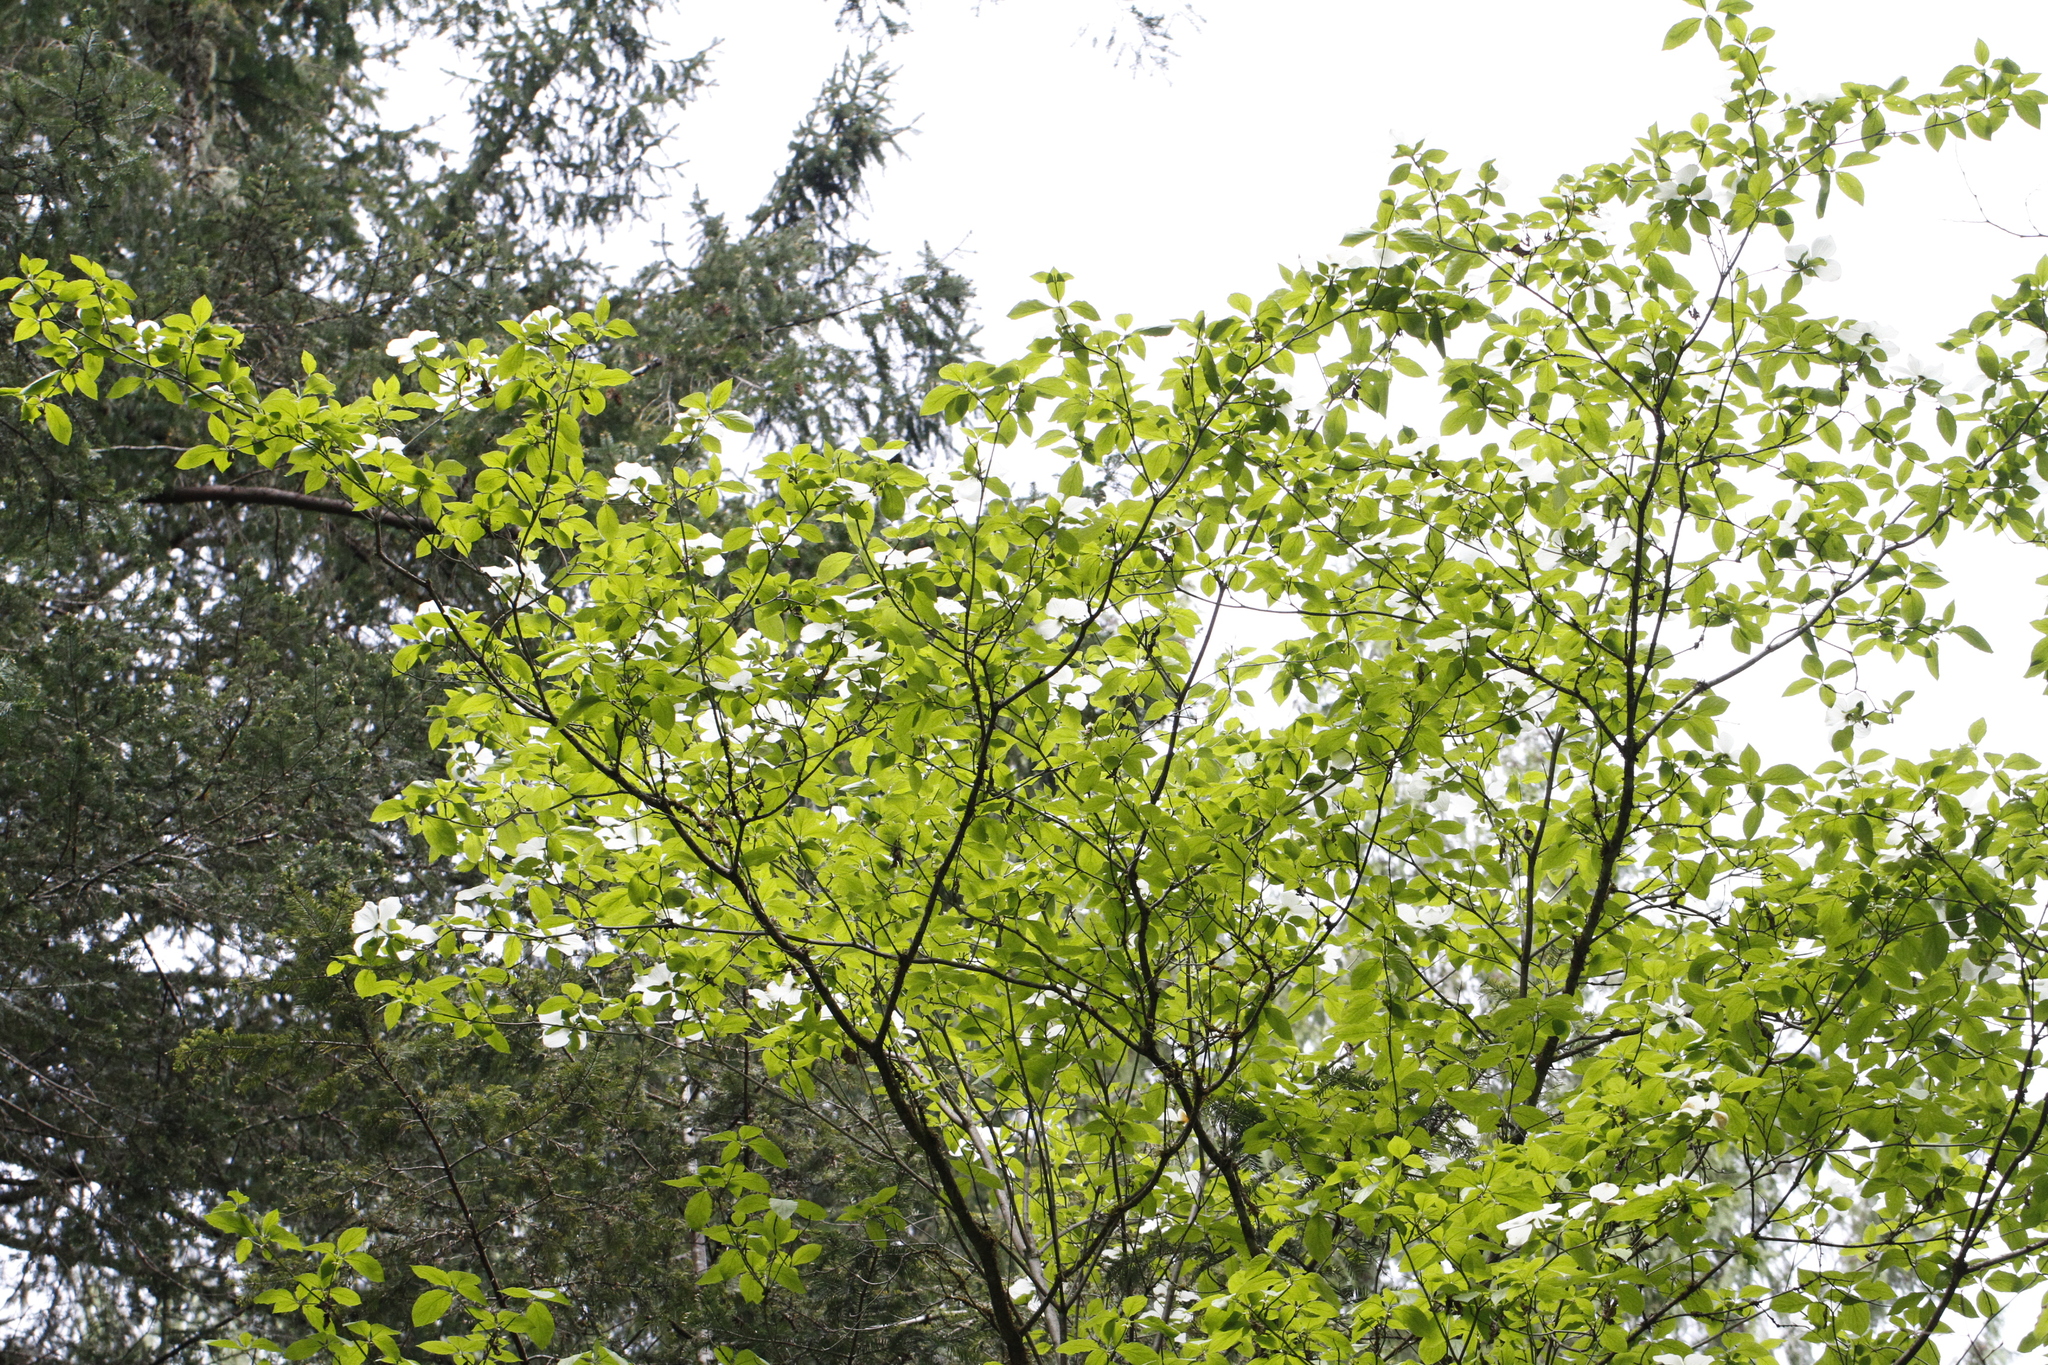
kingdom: Plantae
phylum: Tracheophyta
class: Magnoliopsida
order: Cornales
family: Cornaceae
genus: Cornus
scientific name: Cornus nuttallii
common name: Pacific dogwood
